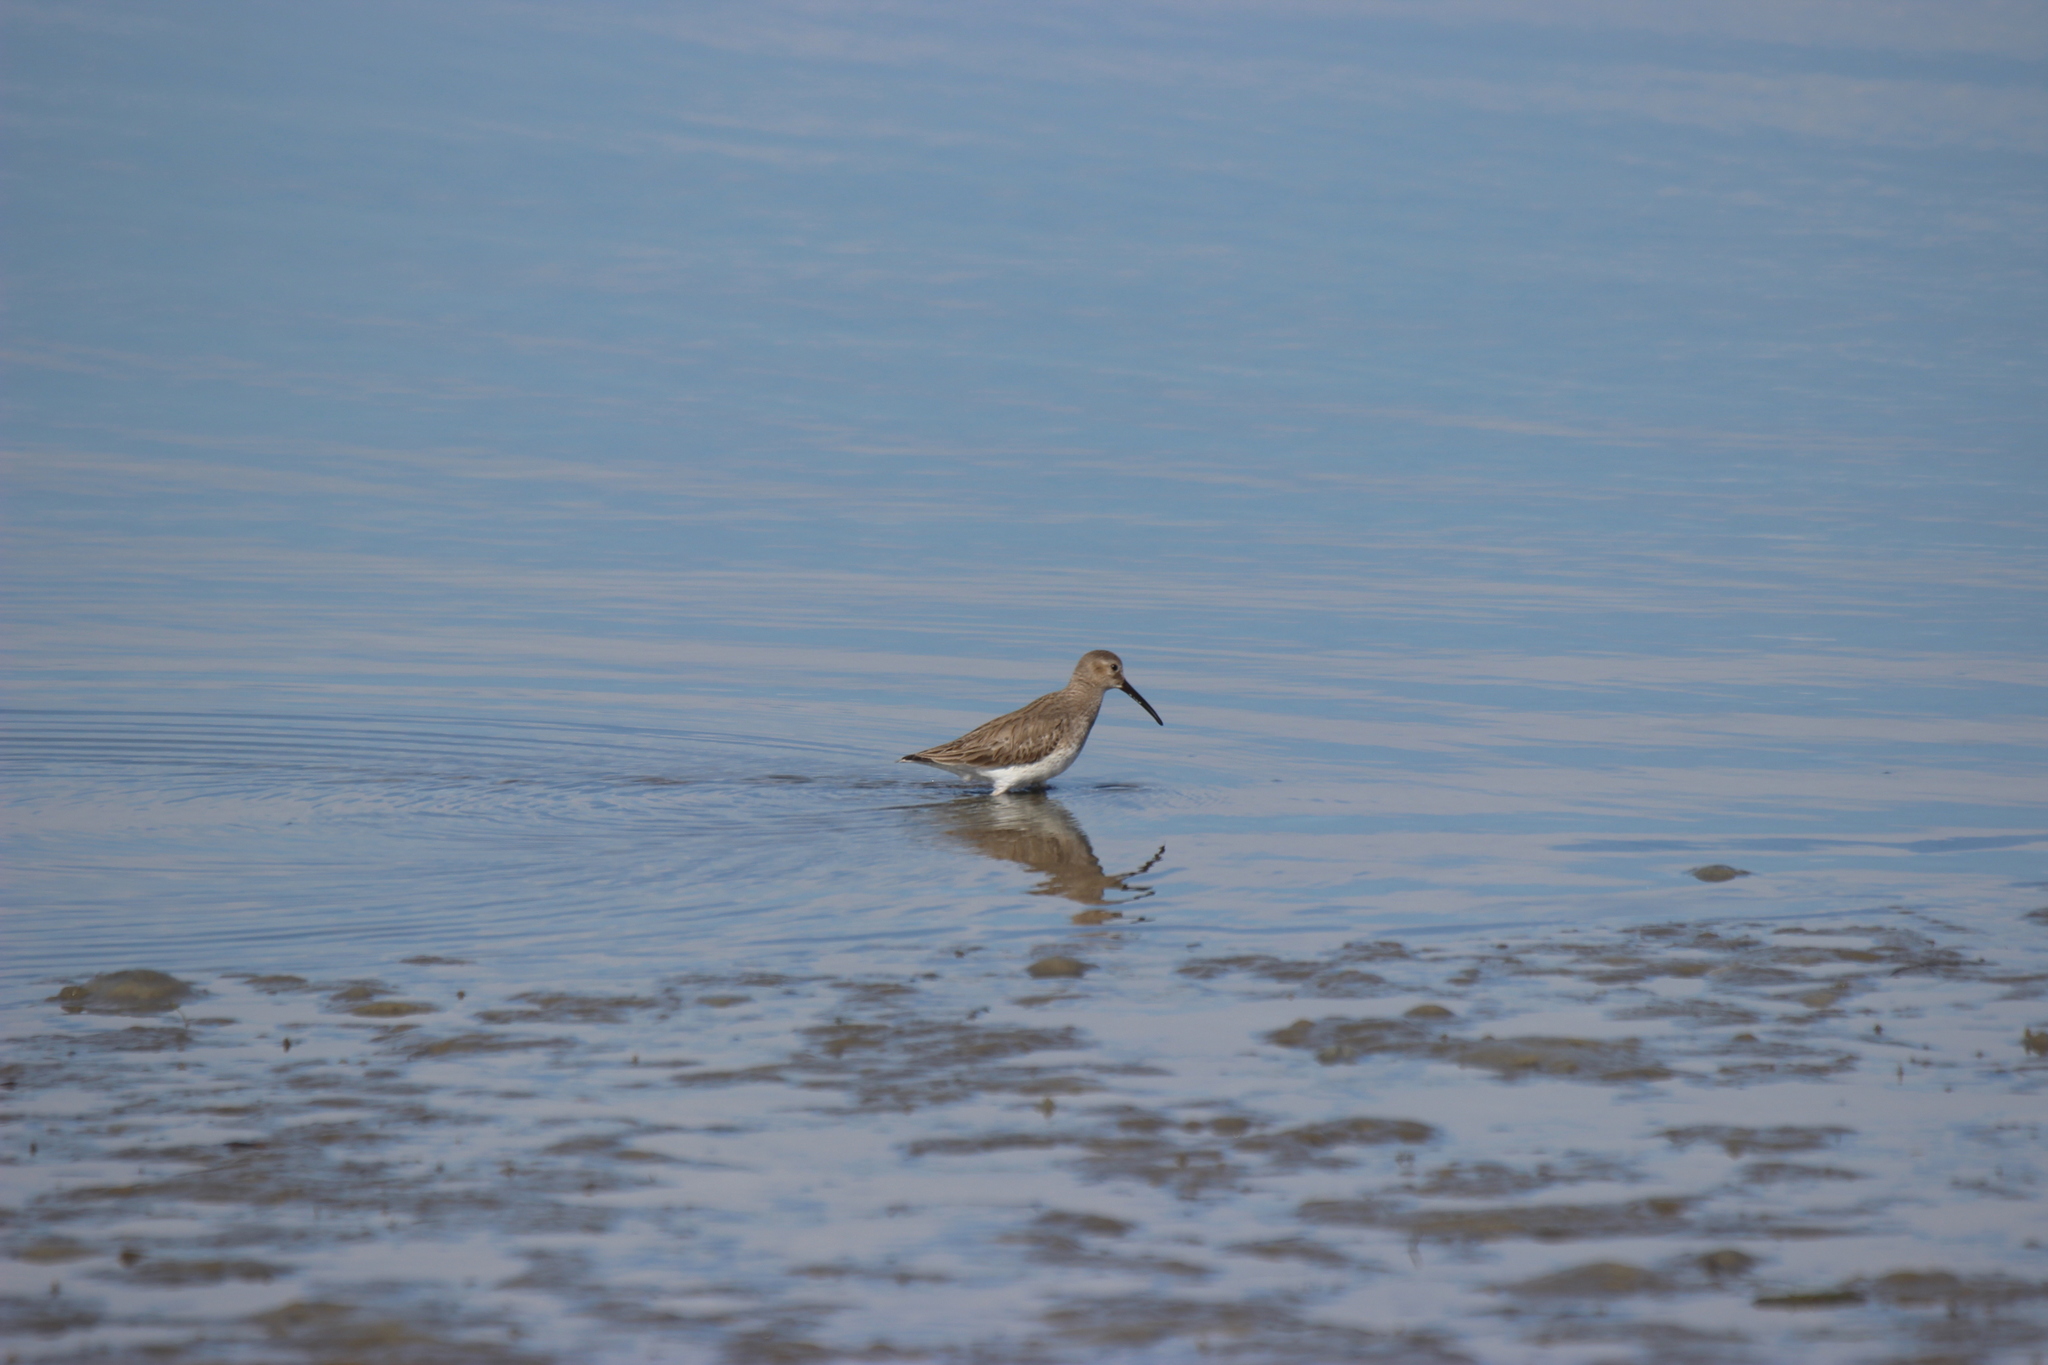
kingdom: Animalia
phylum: Chordata
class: Aves
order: Charadriiformes
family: Scolopacidae
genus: Calidris
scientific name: Calidris alpina
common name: Dunlin
